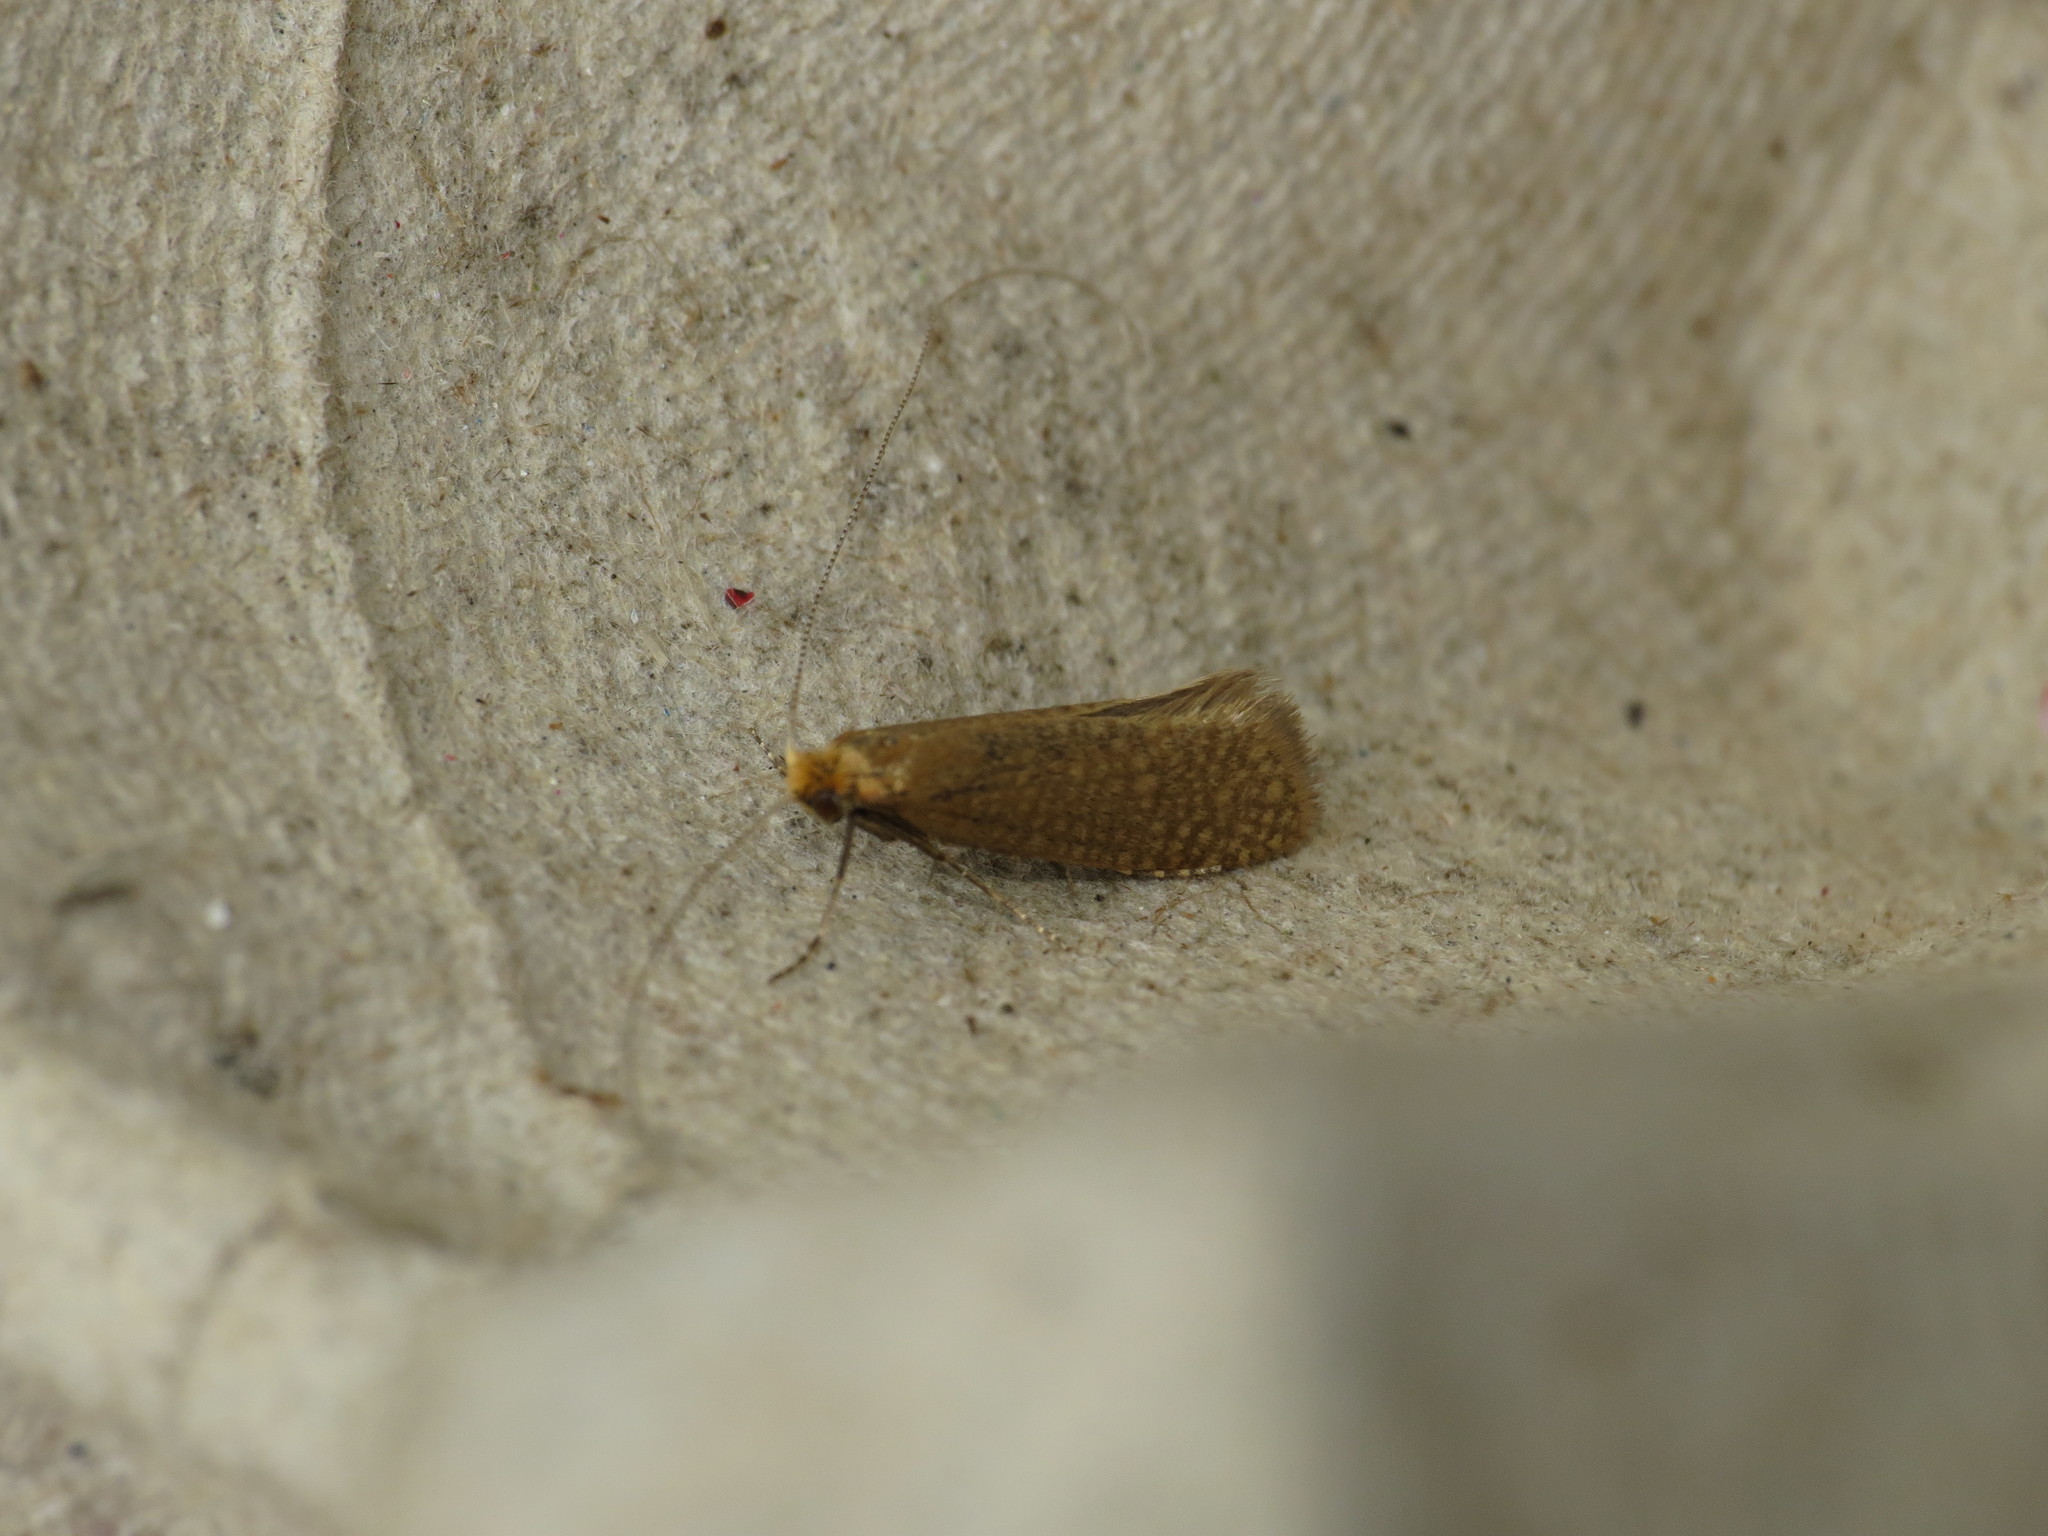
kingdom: Animalia
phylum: Arthropoda
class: Insecta
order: Lepidoptera
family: Adelidae
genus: Nematopogon
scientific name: Nematopogon adansoniella
